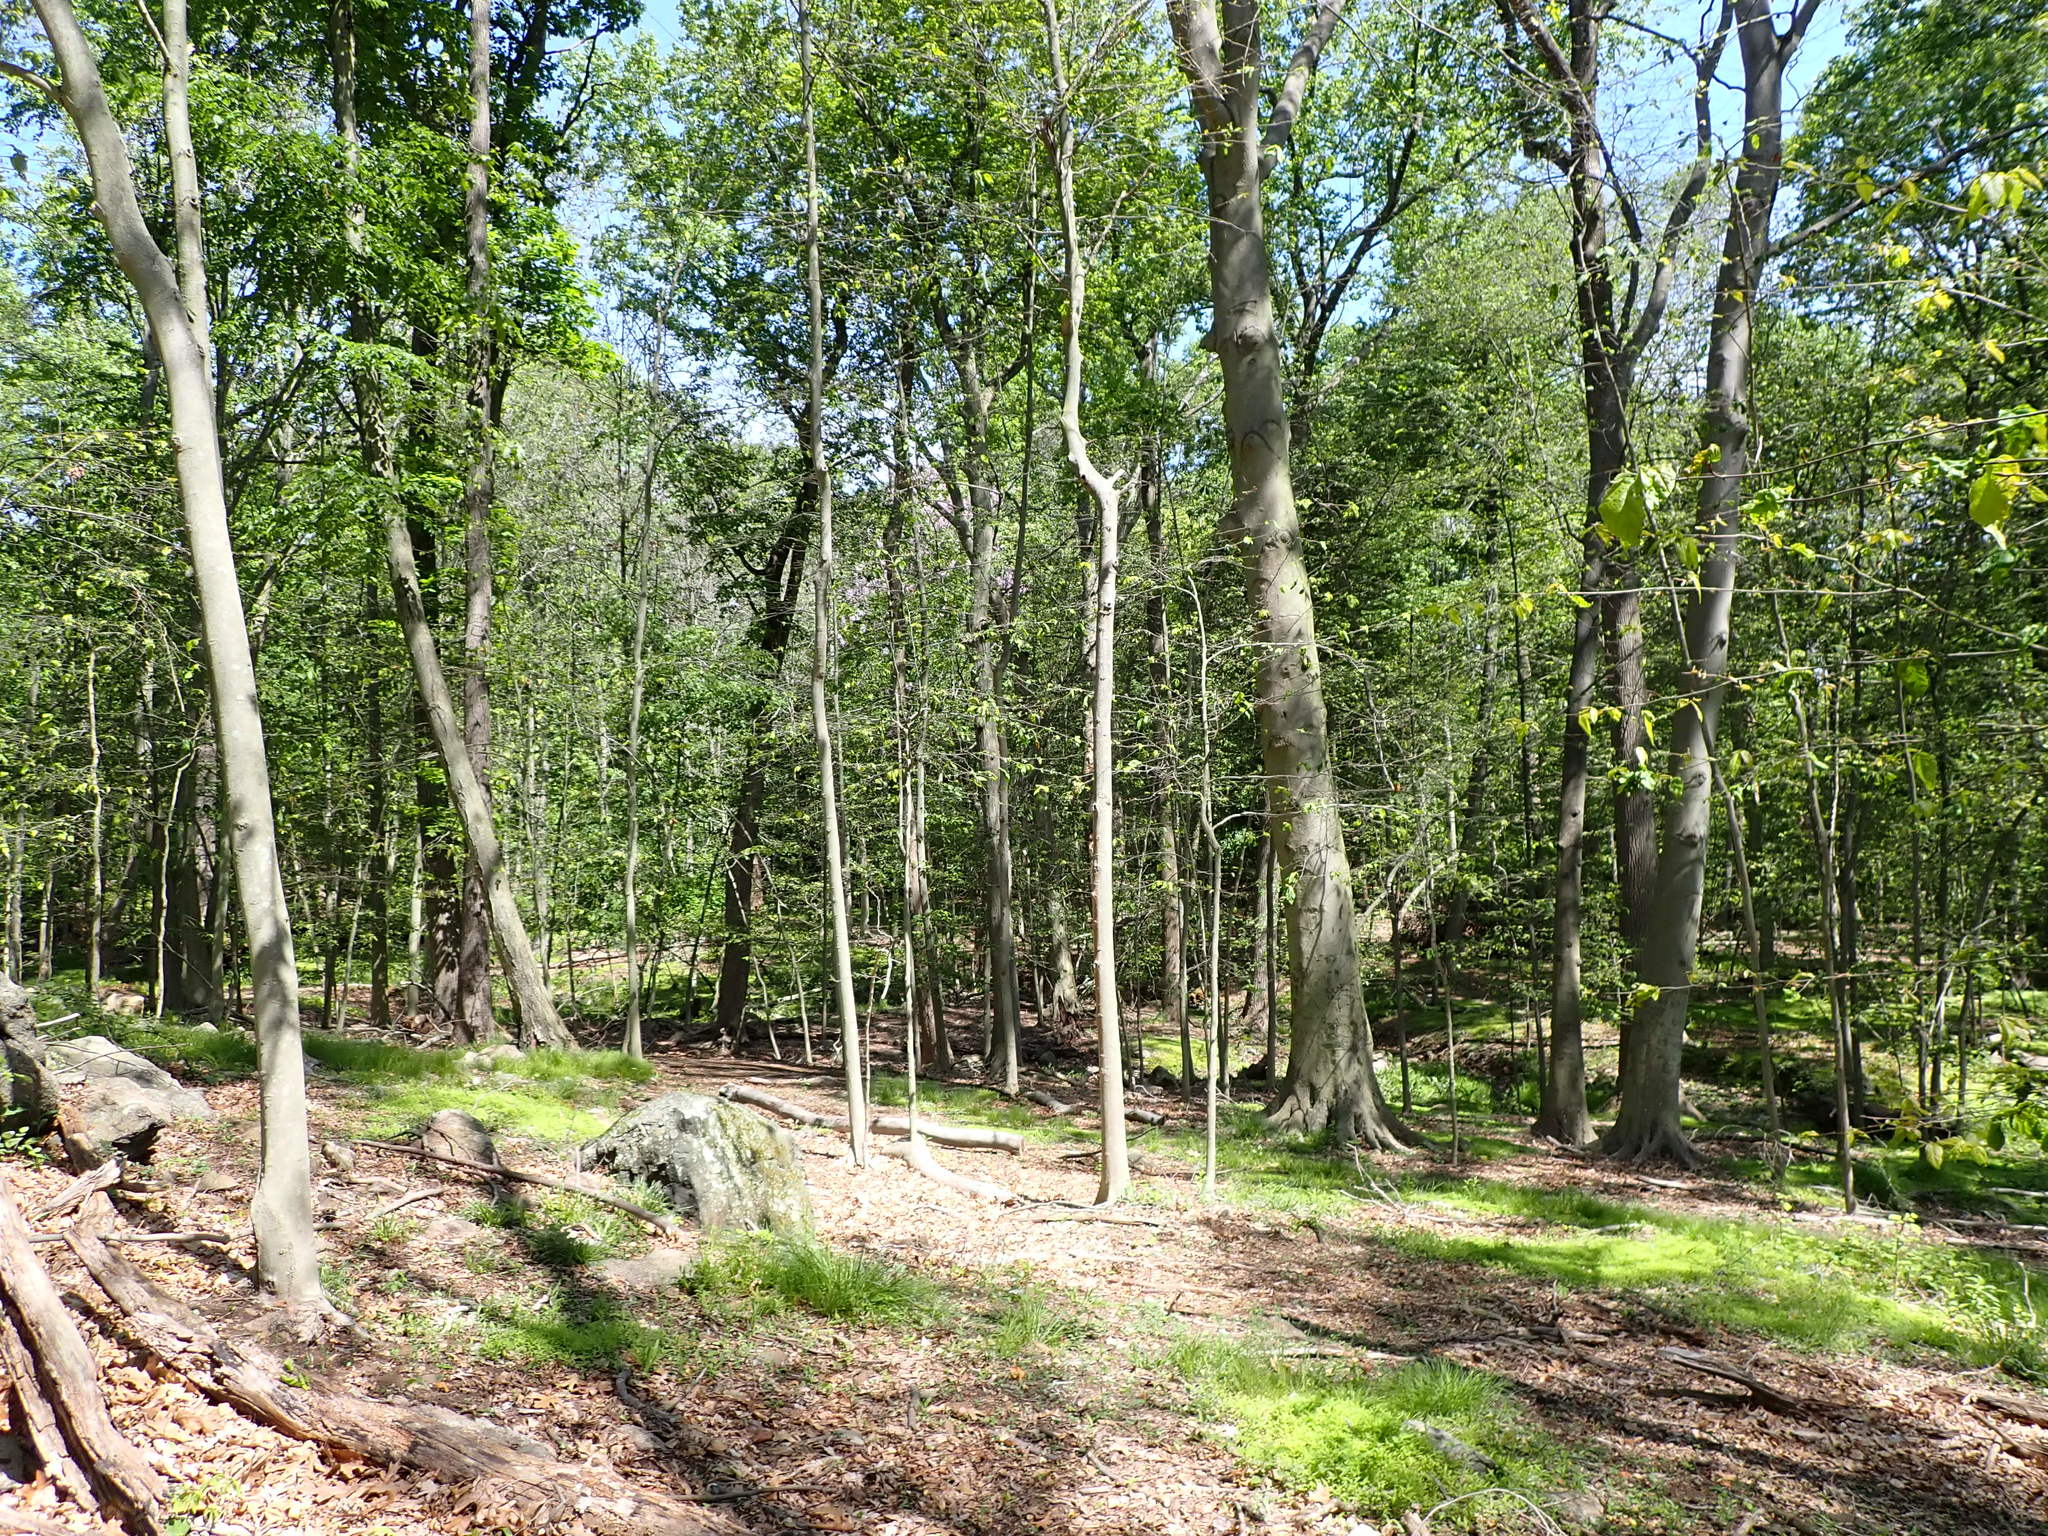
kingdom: Animalia
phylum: Nematoda
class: Chromadorea
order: Rhabditida
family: Anguinidae
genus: Litylenchus
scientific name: Litylenchus crenatae
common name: Beech leaf disease
